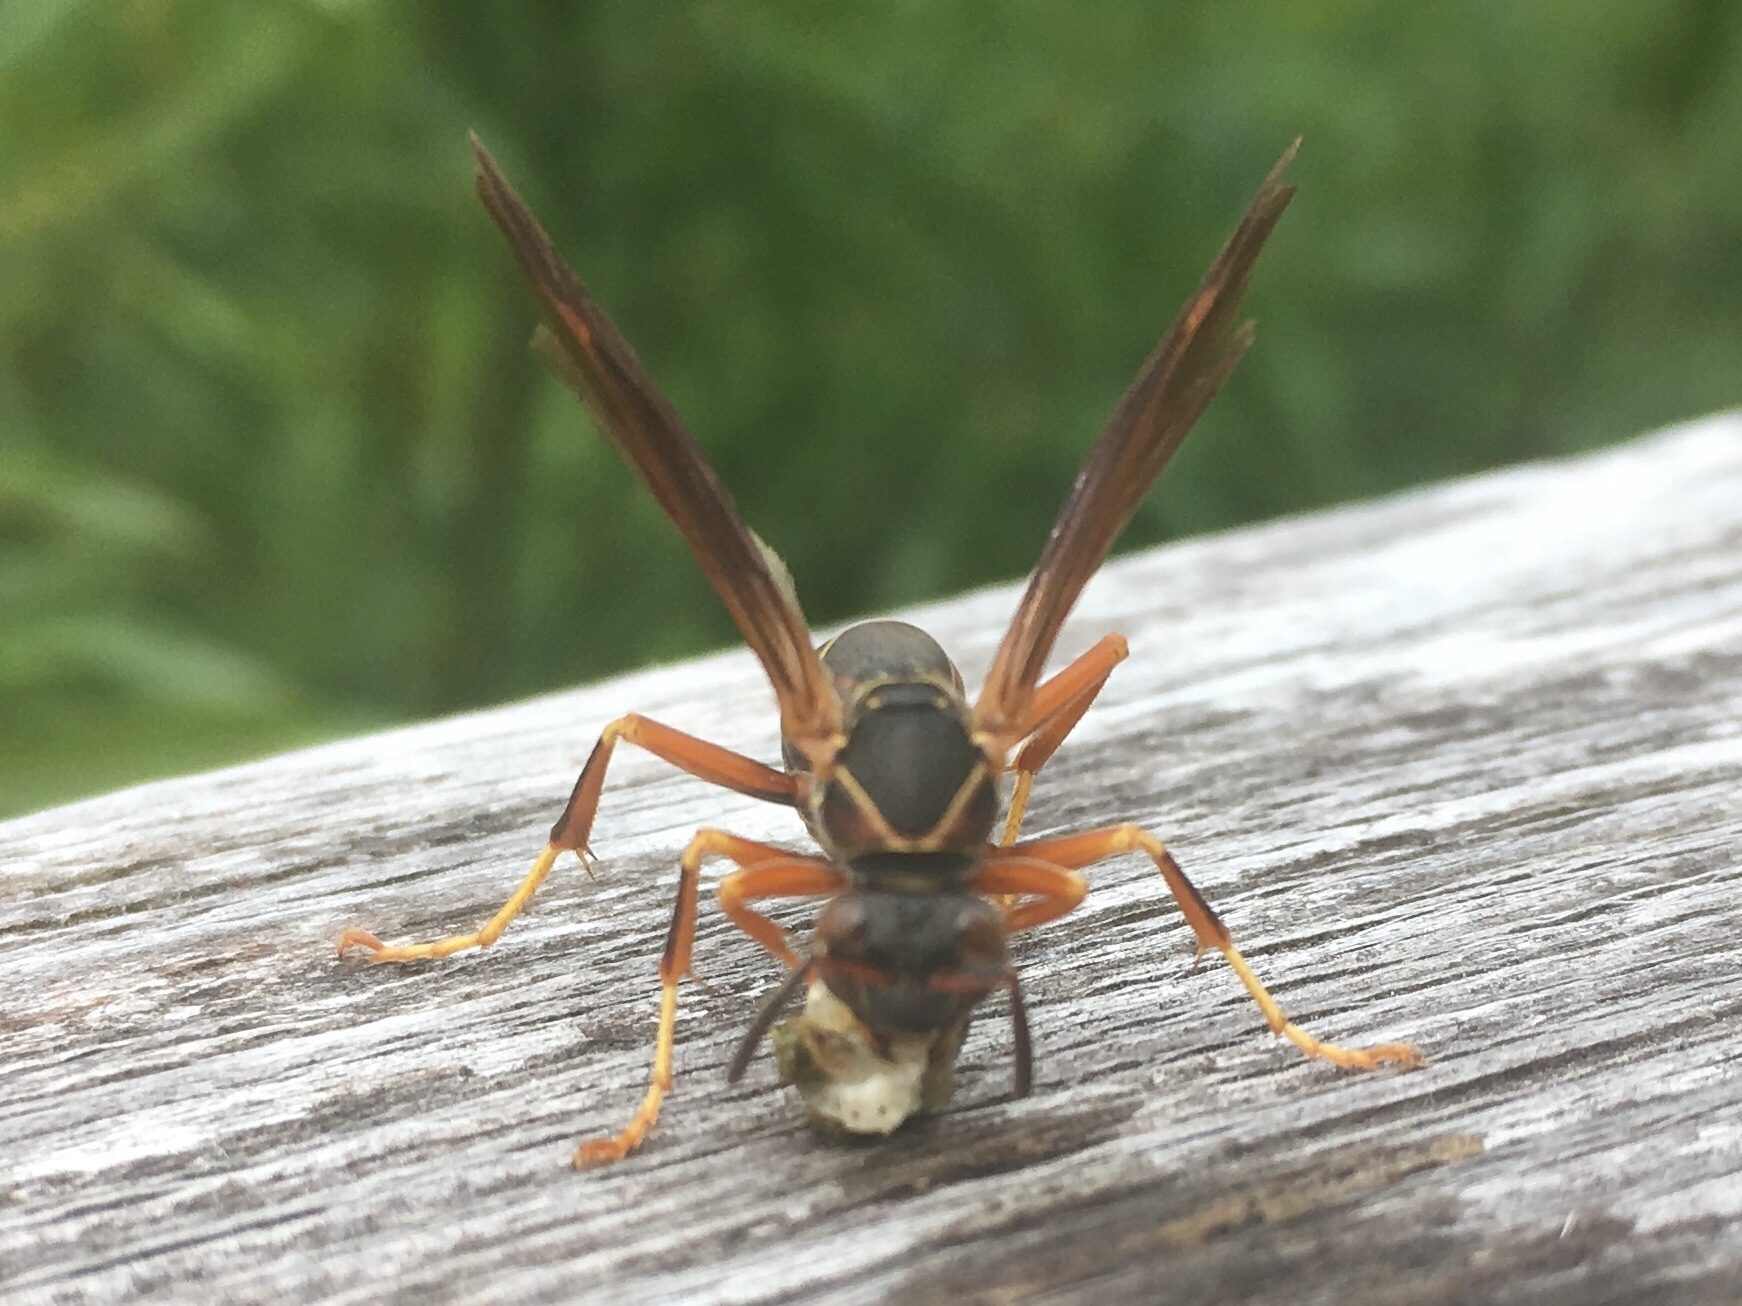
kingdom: Animalia
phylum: Arthropoda
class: Insecta
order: Hymenoptera
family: Eumenidae
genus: Polistes
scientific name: Polistes fuscatus
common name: Dark paper wasp
